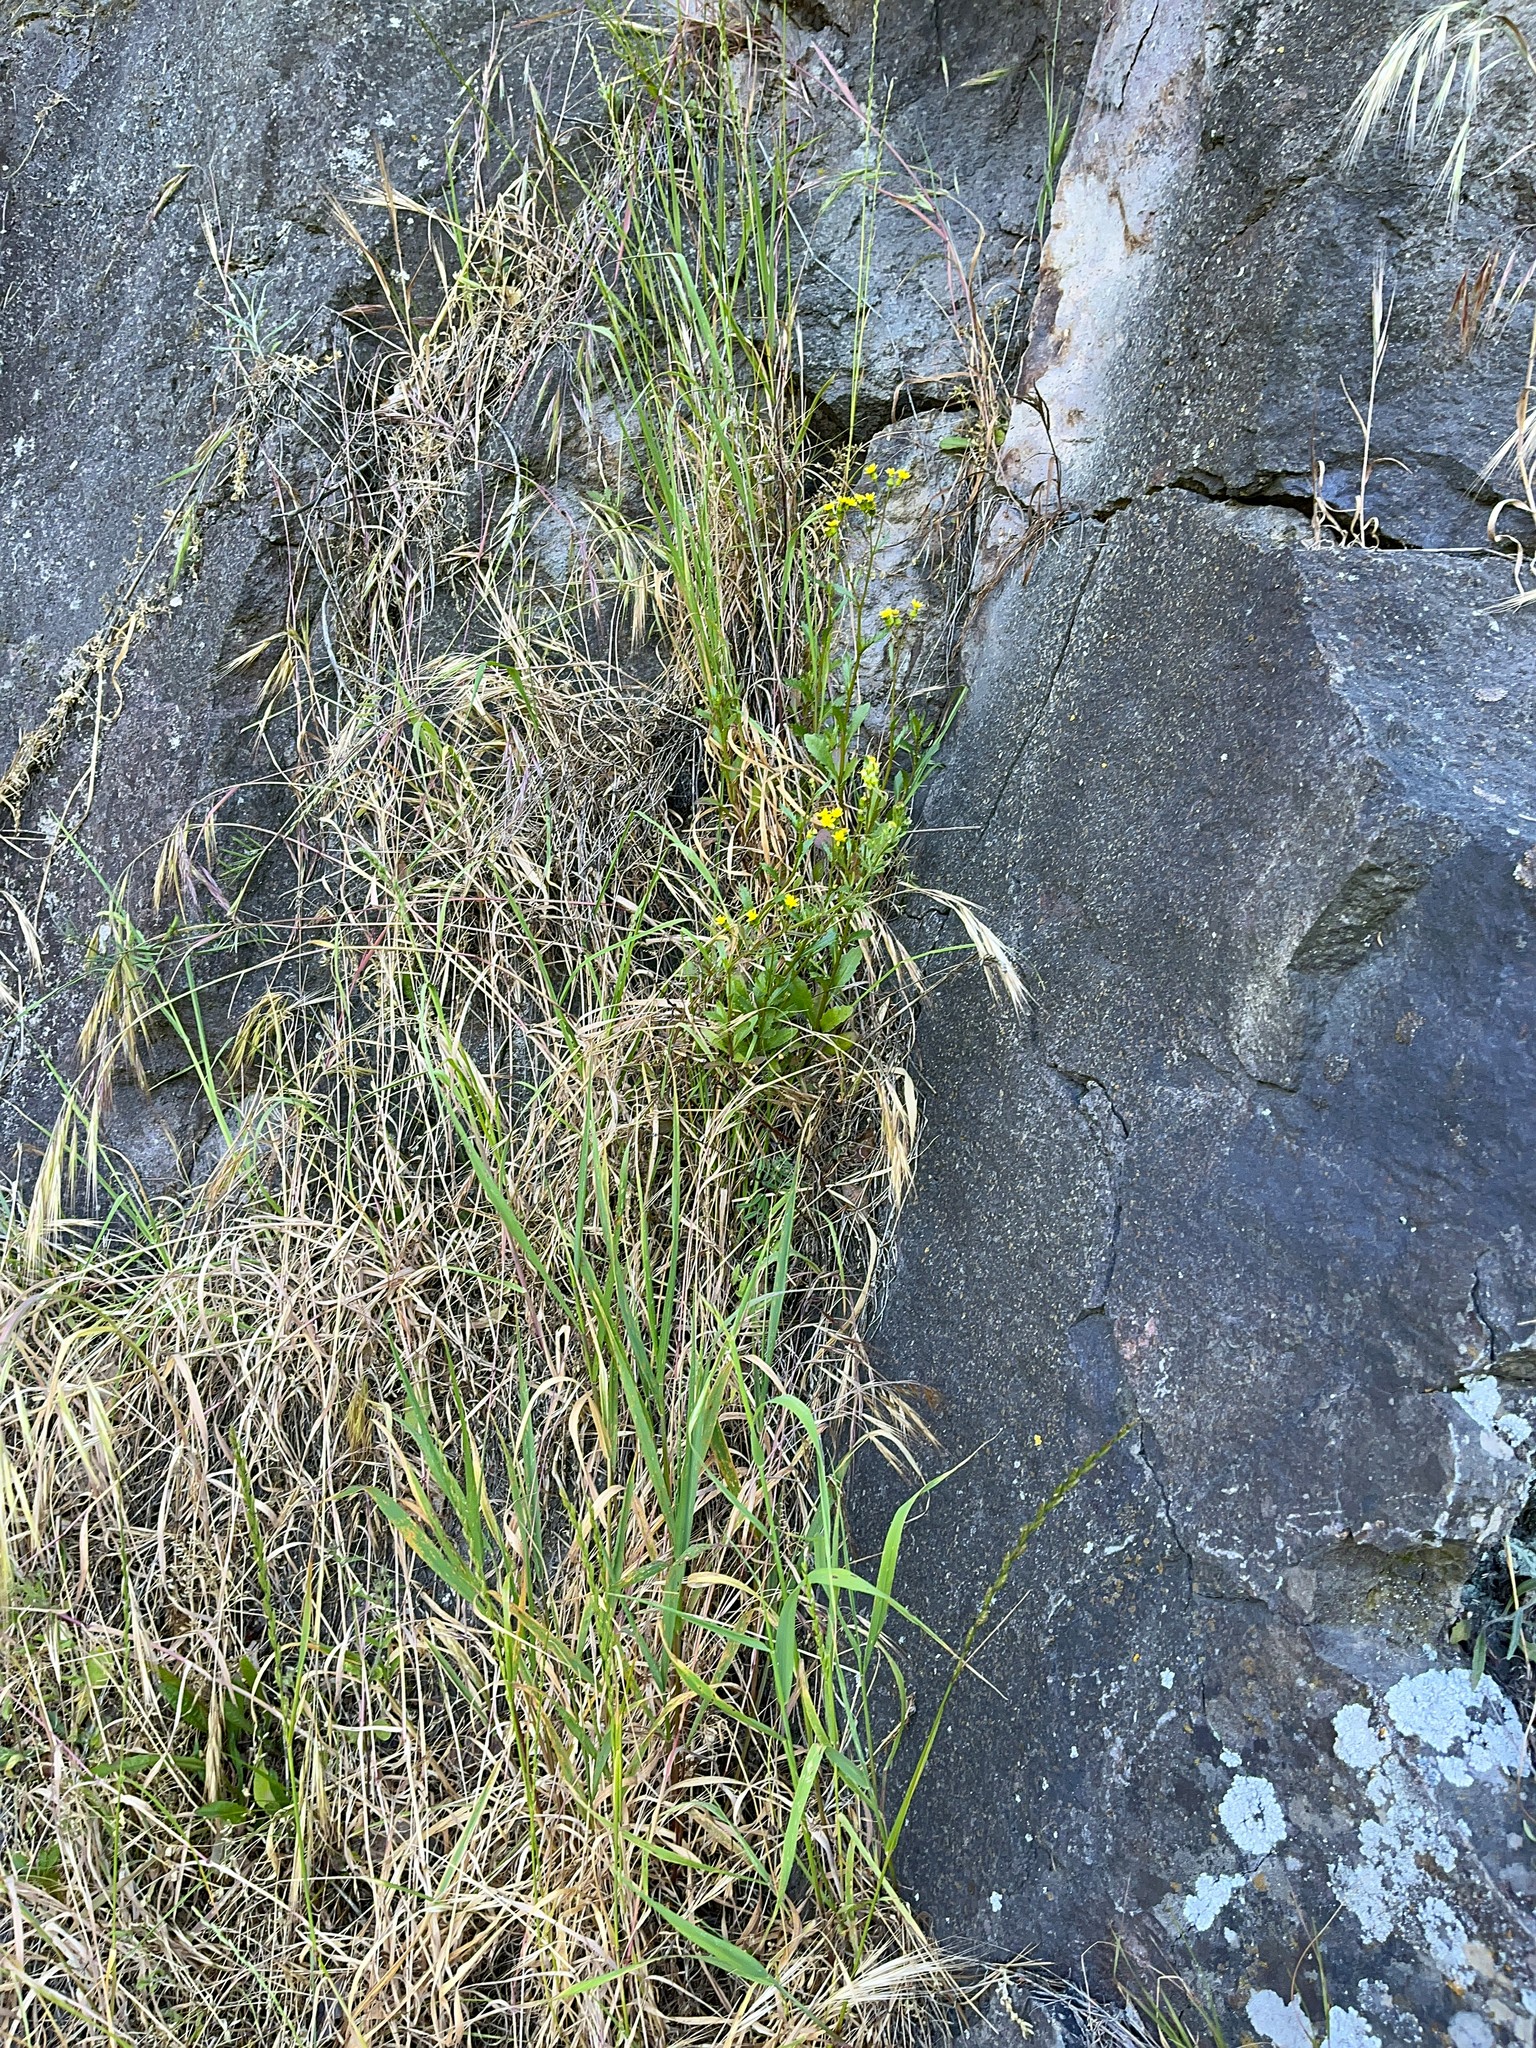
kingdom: Plantae
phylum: Tracheophyta
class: Magnoliopsida
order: Asterales
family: Asteraceae
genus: Senecio
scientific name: Senecio matatini
